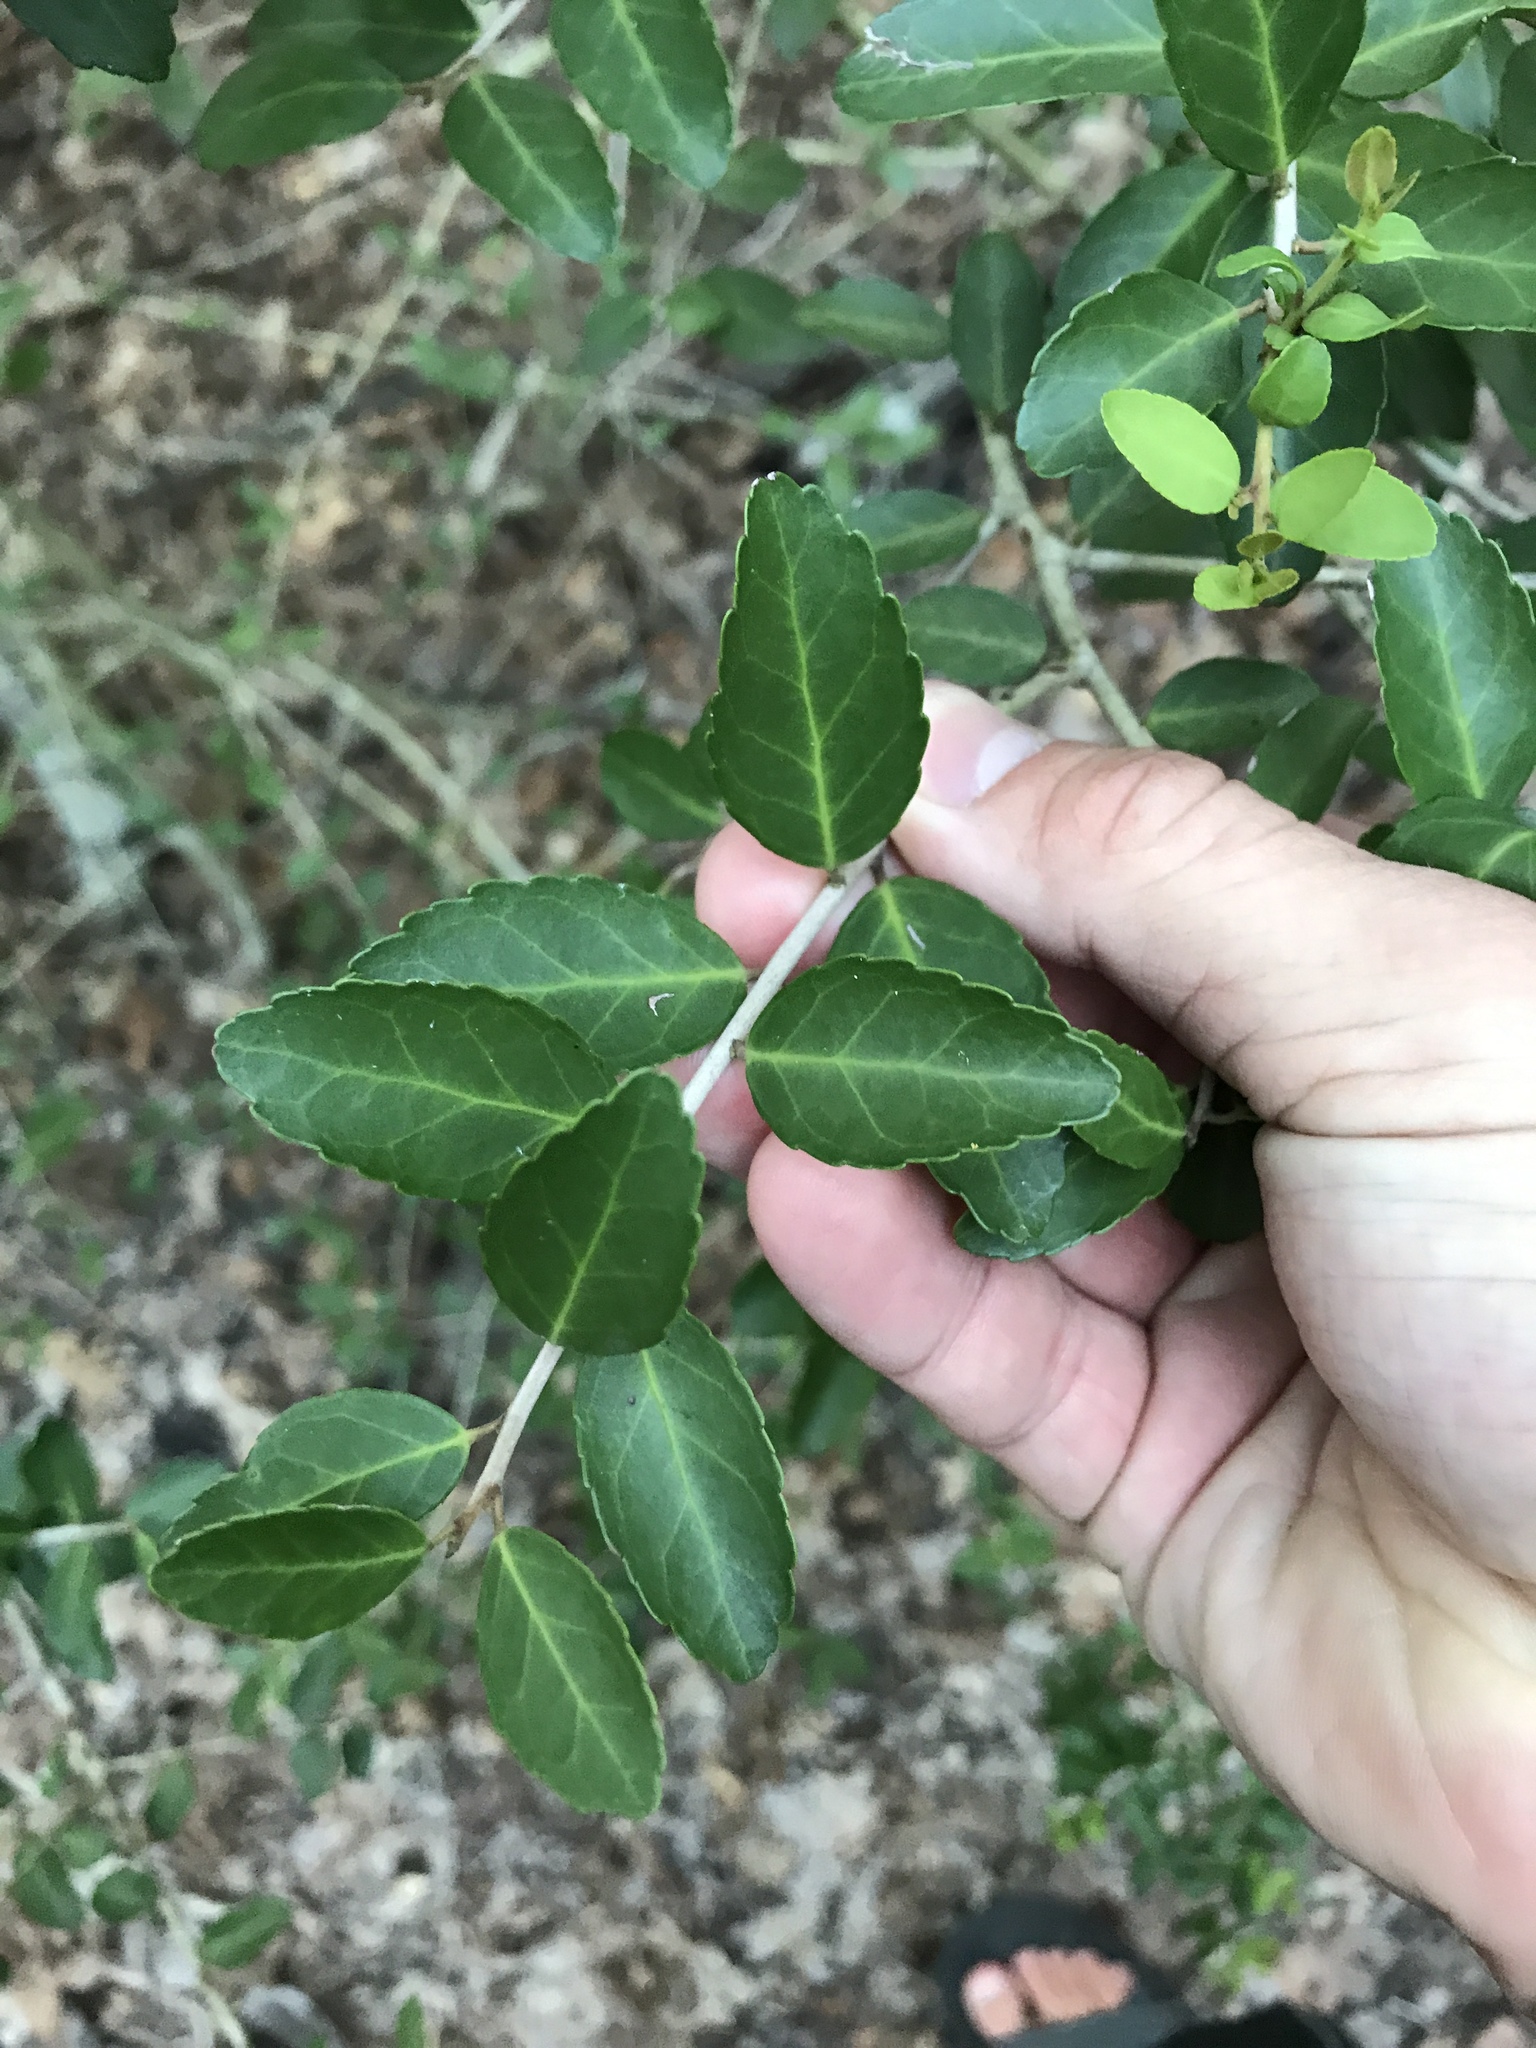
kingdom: Plantae
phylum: Tracheophyta
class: Magnoliopsida
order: Aquifoliales
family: Aquifoliaceae
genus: Ilex
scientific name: Ilex vomitoria
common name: Yaupon holly
